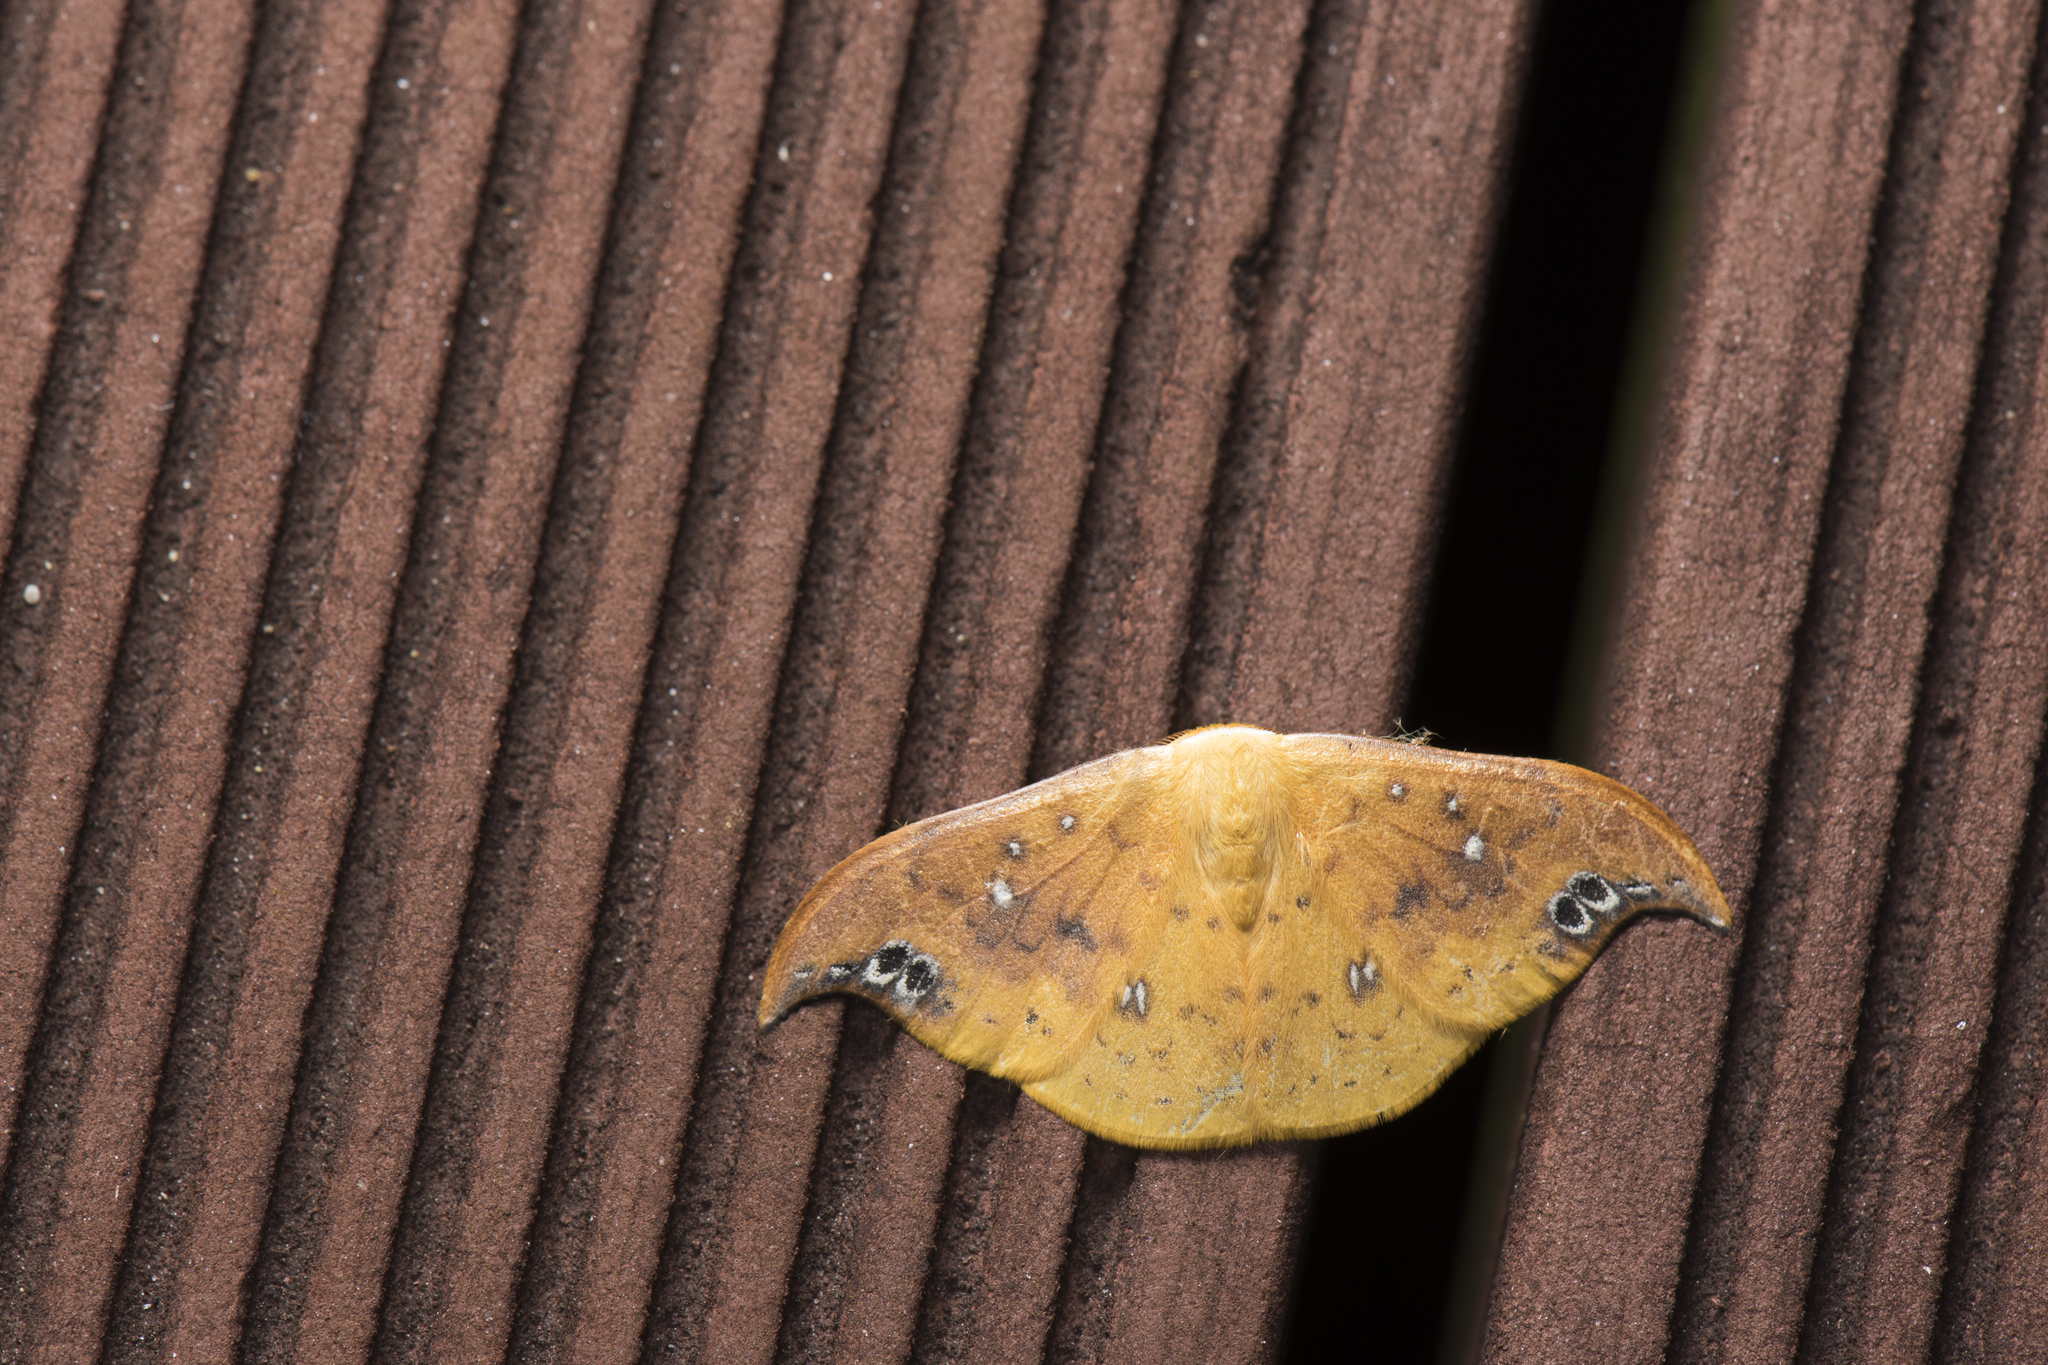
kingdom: Animalia
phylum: Arthropoda
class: Insecta
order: Lepidoptera
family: Drepanidae
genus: Tridrepana
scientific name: Tridrepana unispina
